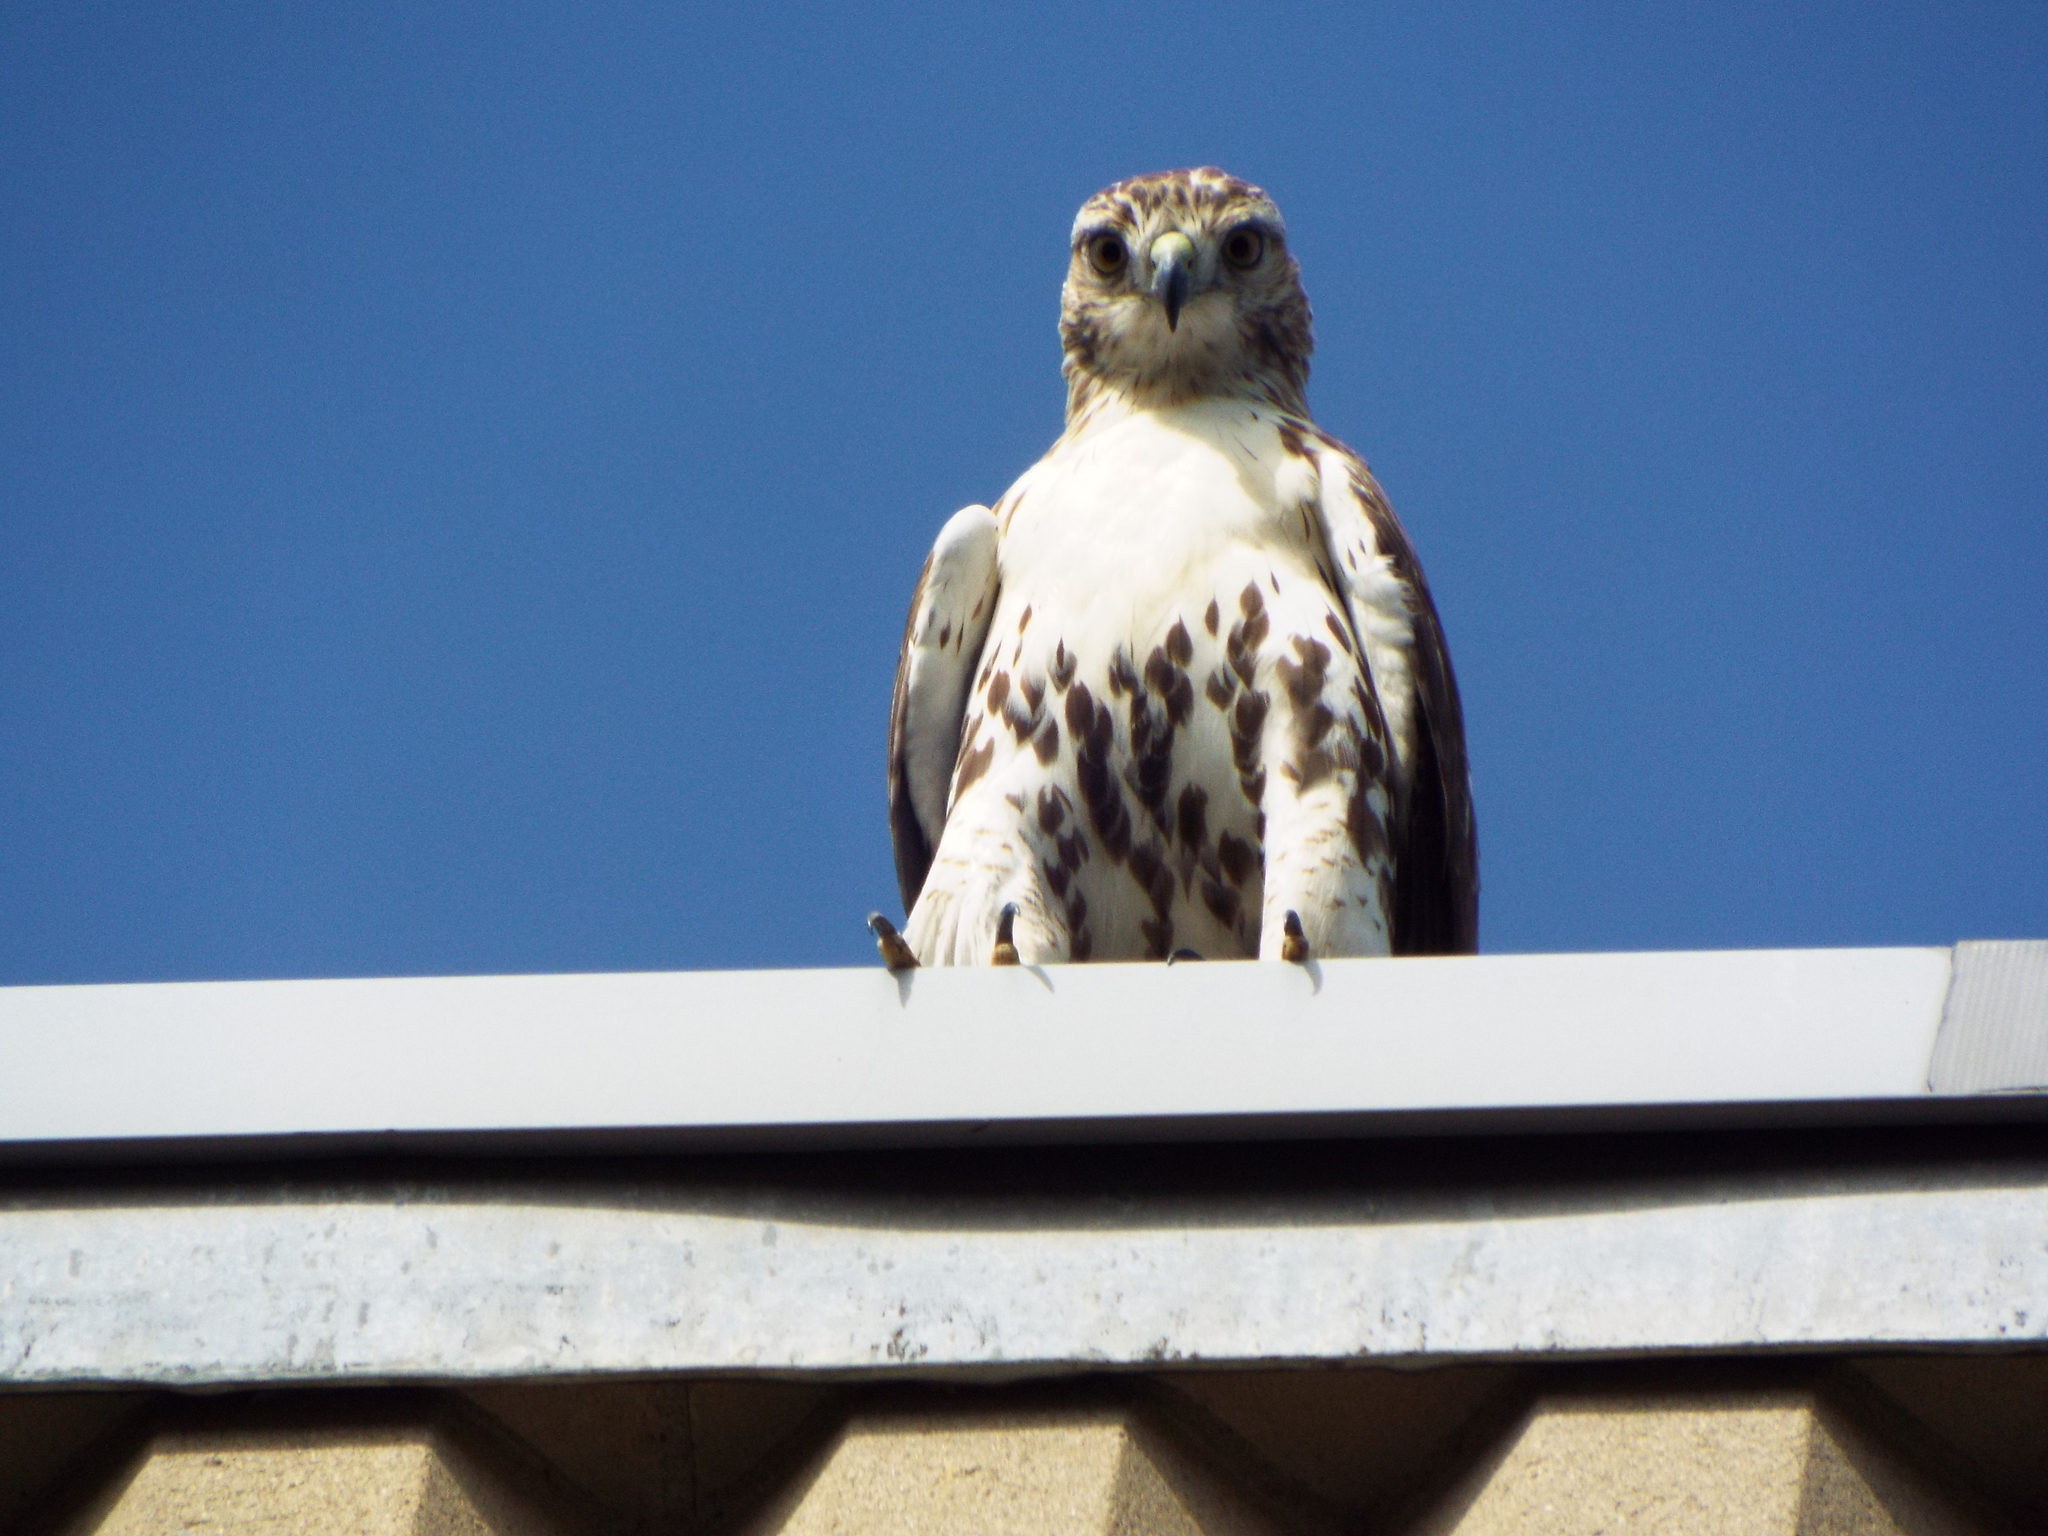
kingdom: Animalia
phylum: Chordata
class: Aves
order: Accipitriformes
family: Accipitridae
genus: Buteo
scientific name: Buteo jamaicensis
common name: Red-tailed hawk
